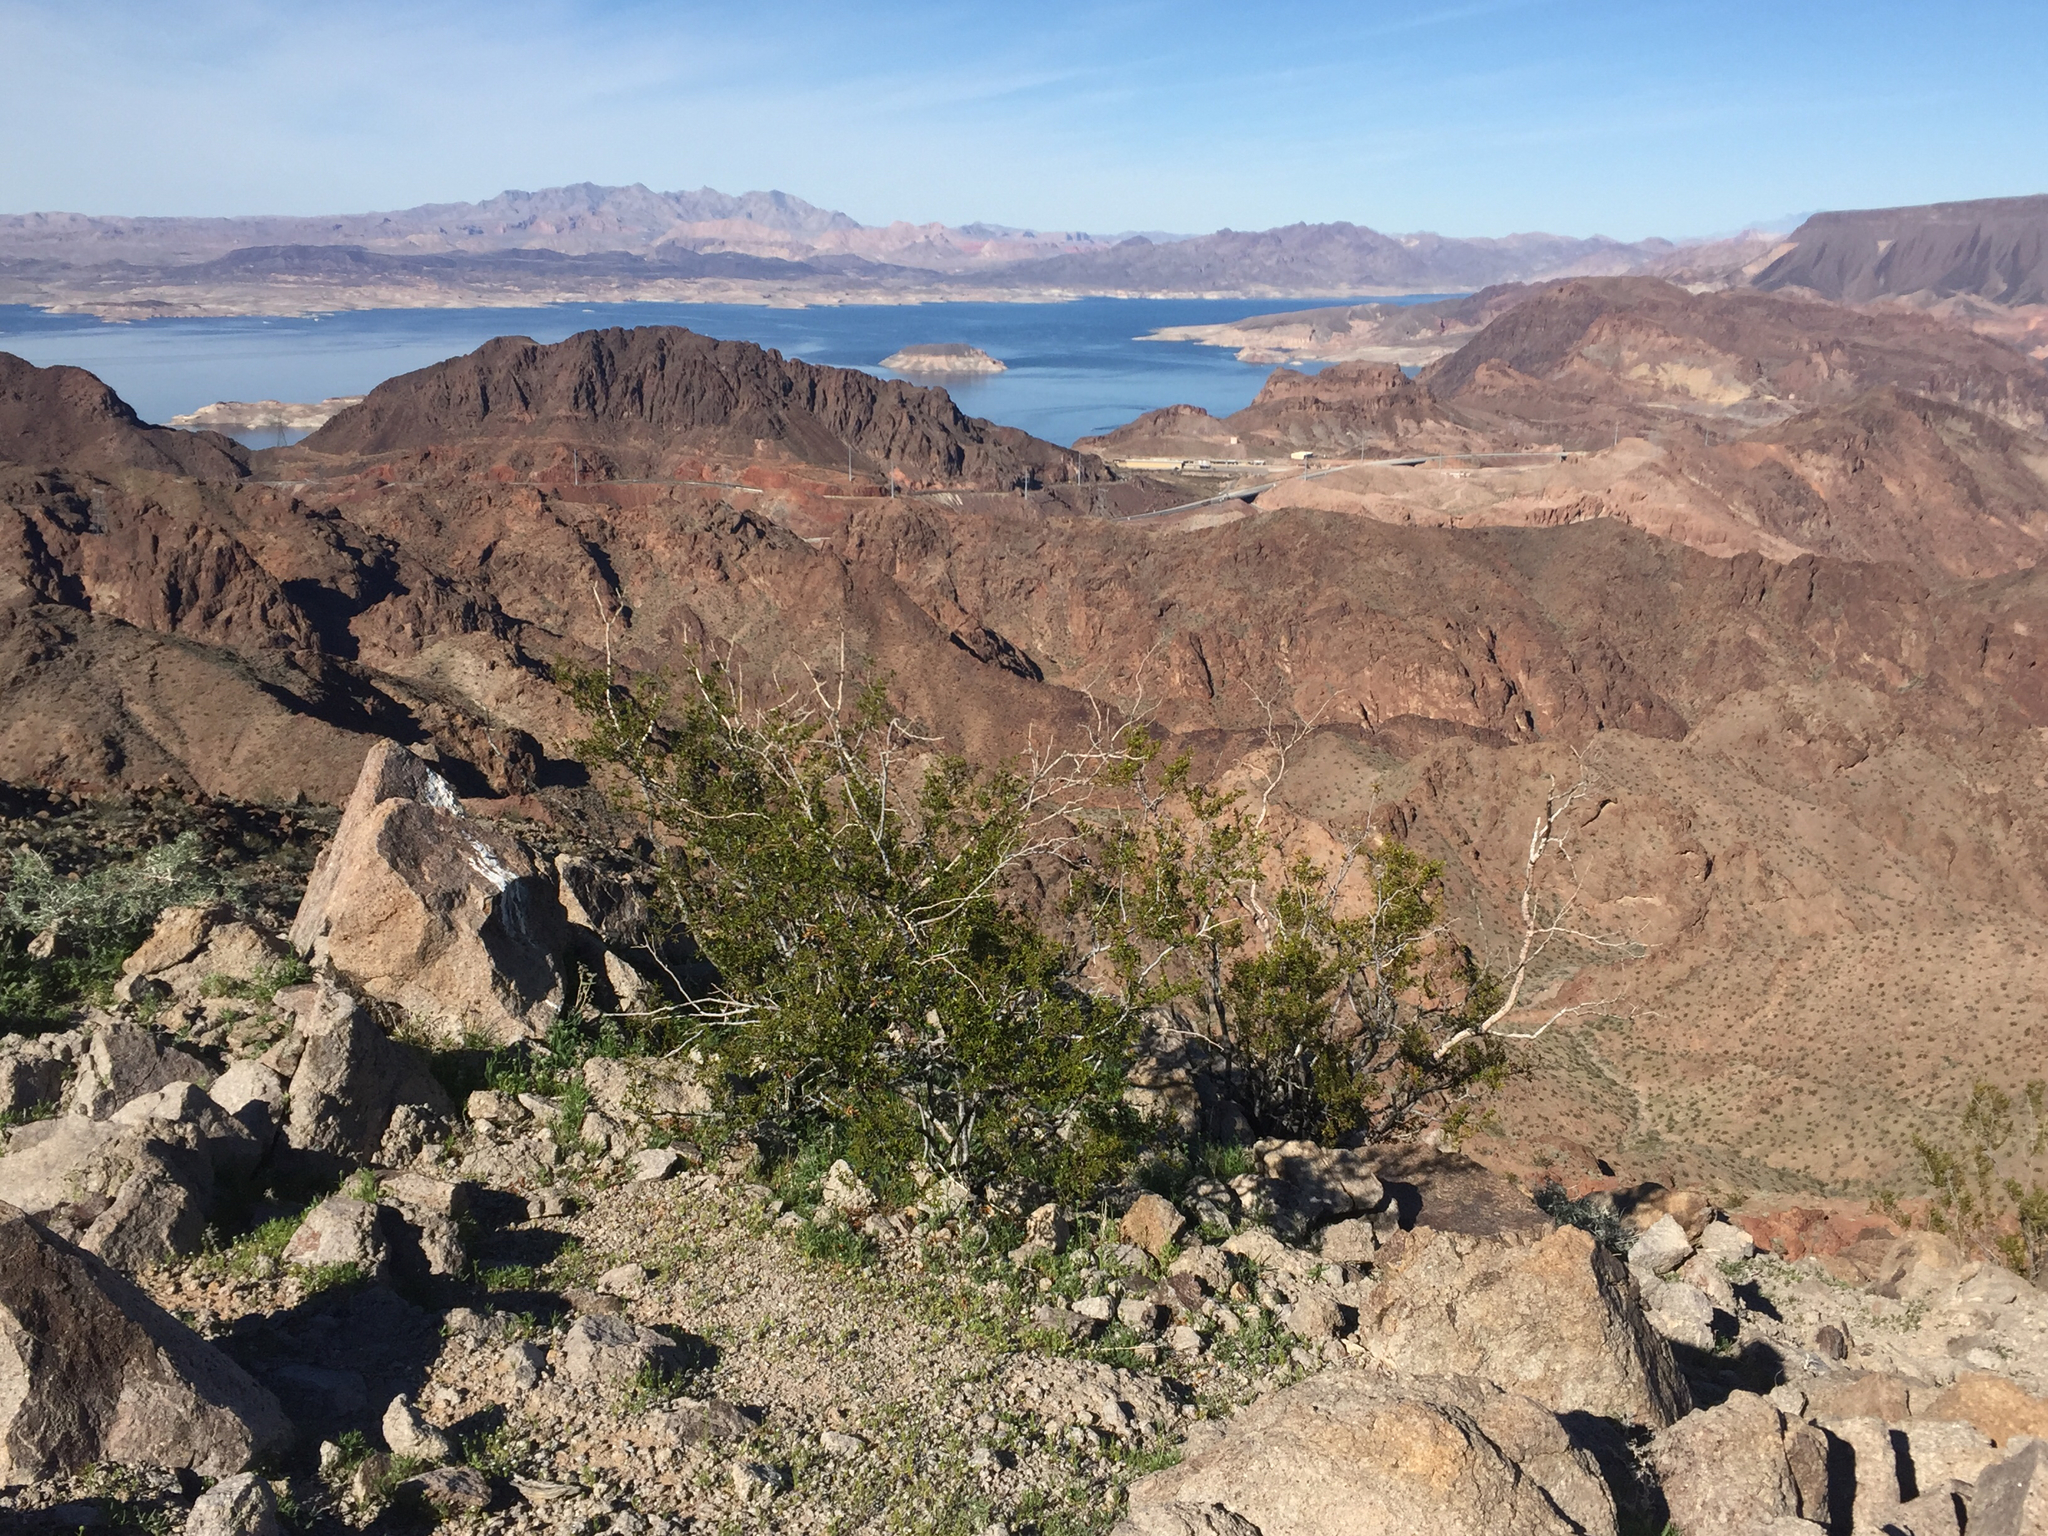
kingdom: Plantae
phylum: Tracheophyta
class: Magnoliopsida
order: Zygophyllales
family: Zygophyllaceae
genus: Larrea
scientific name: Larrea tridentata
